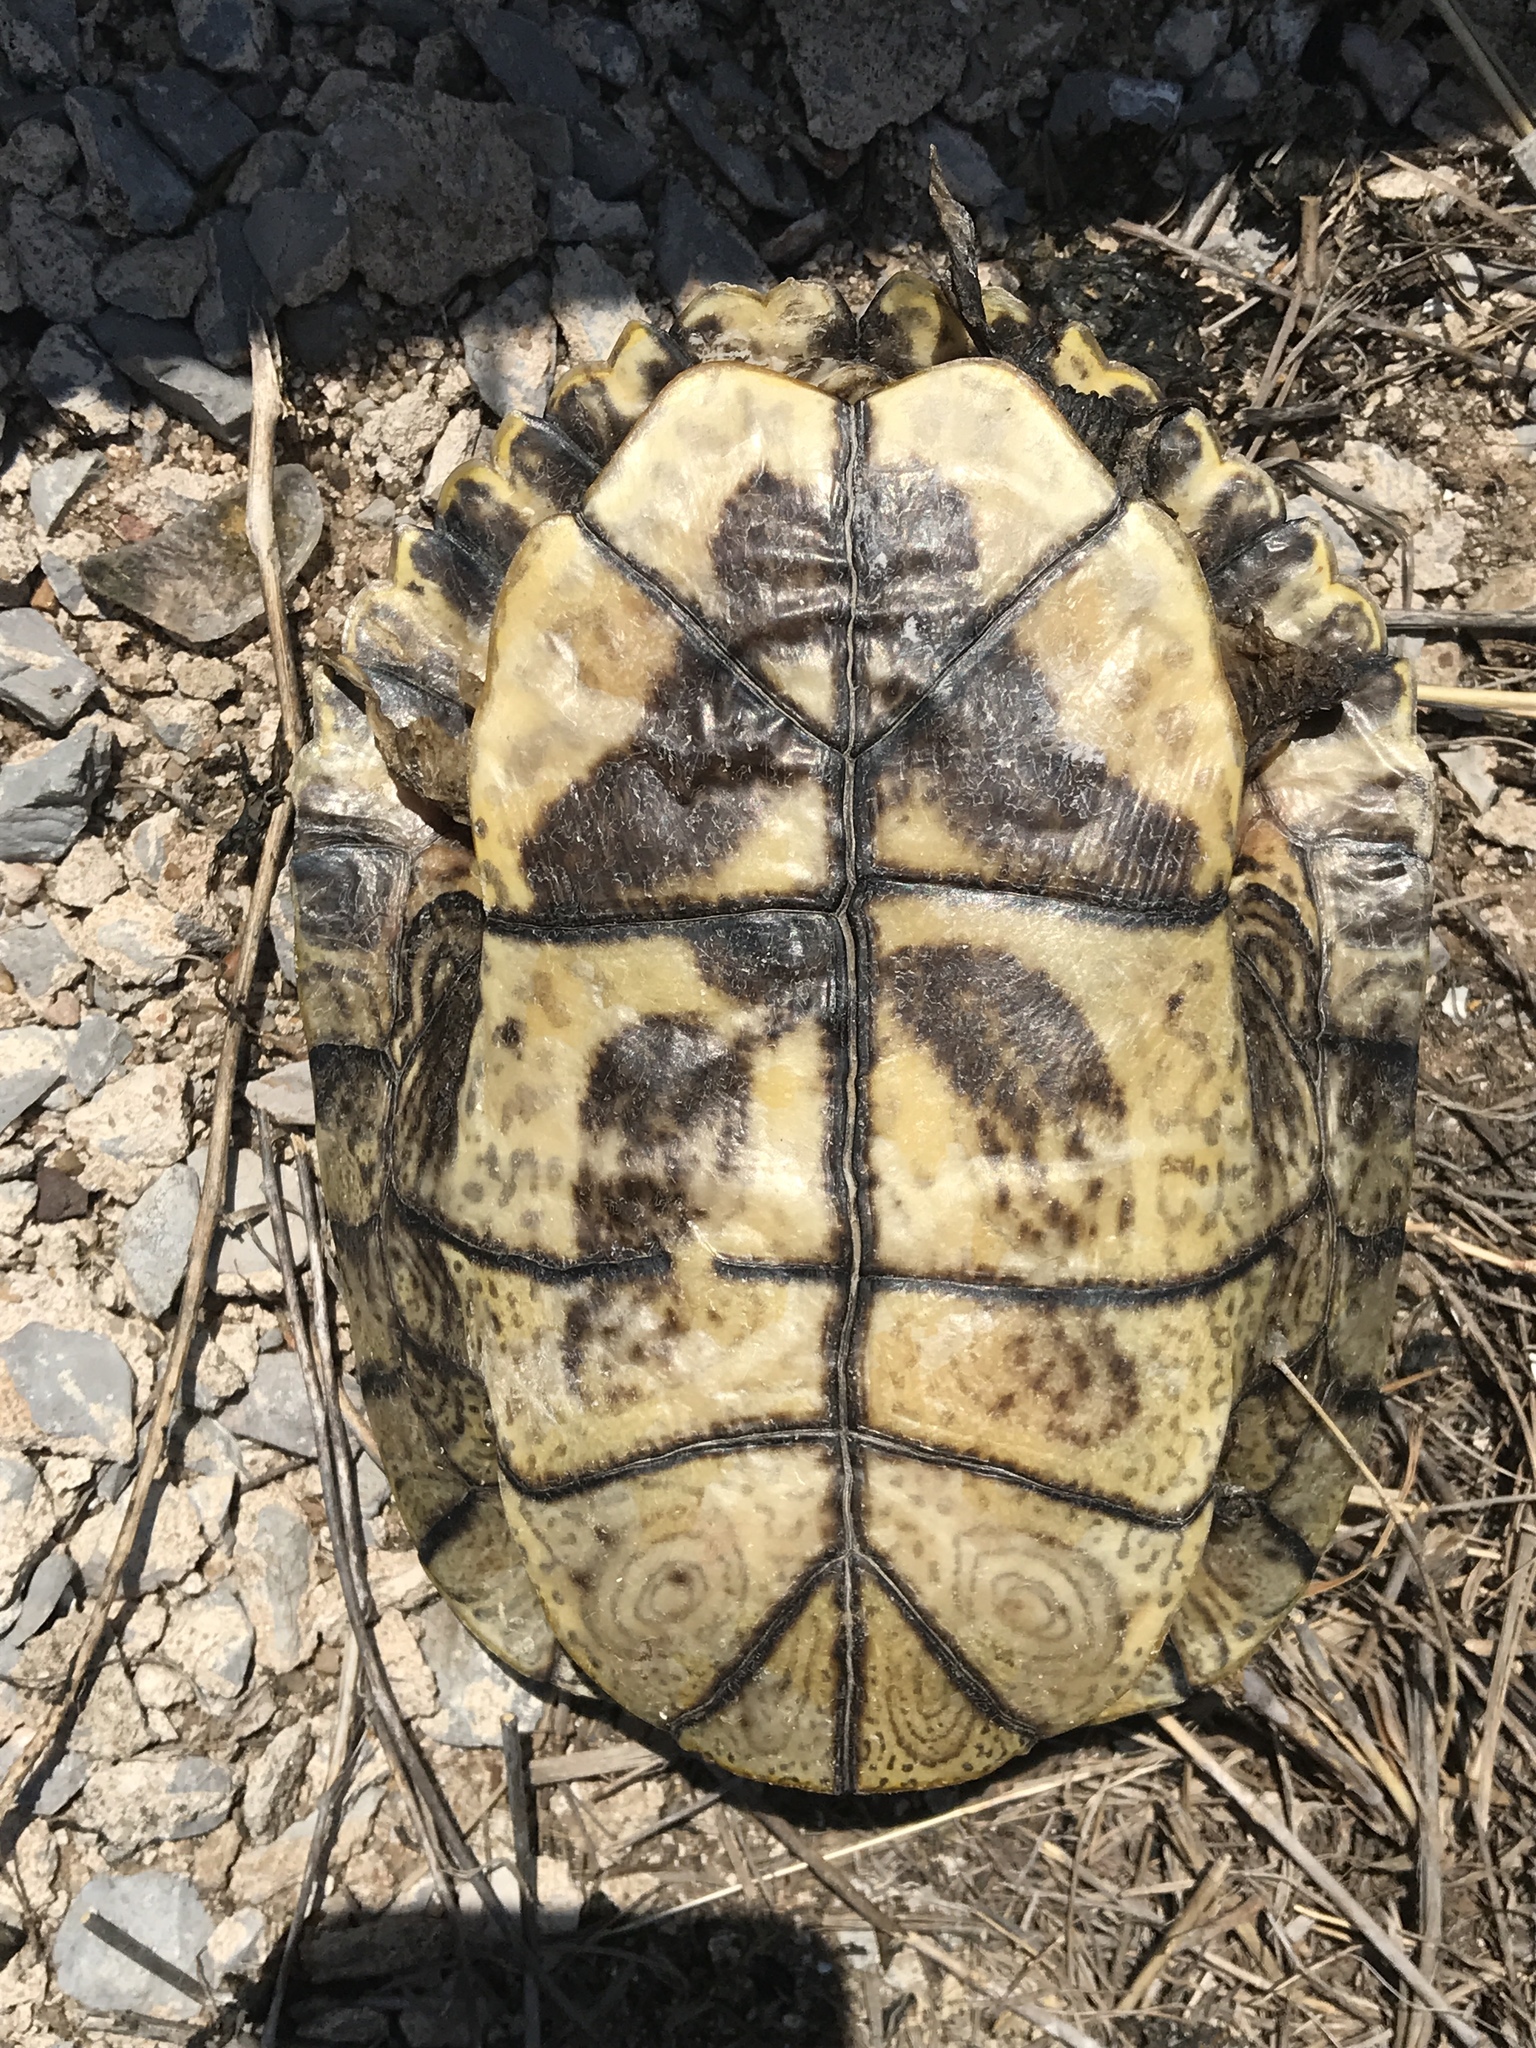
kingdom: Animalia
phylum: Chordata
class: Testudines
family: Emydidae
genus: Trachemys
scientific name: Trachemys scripta
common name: Slider
